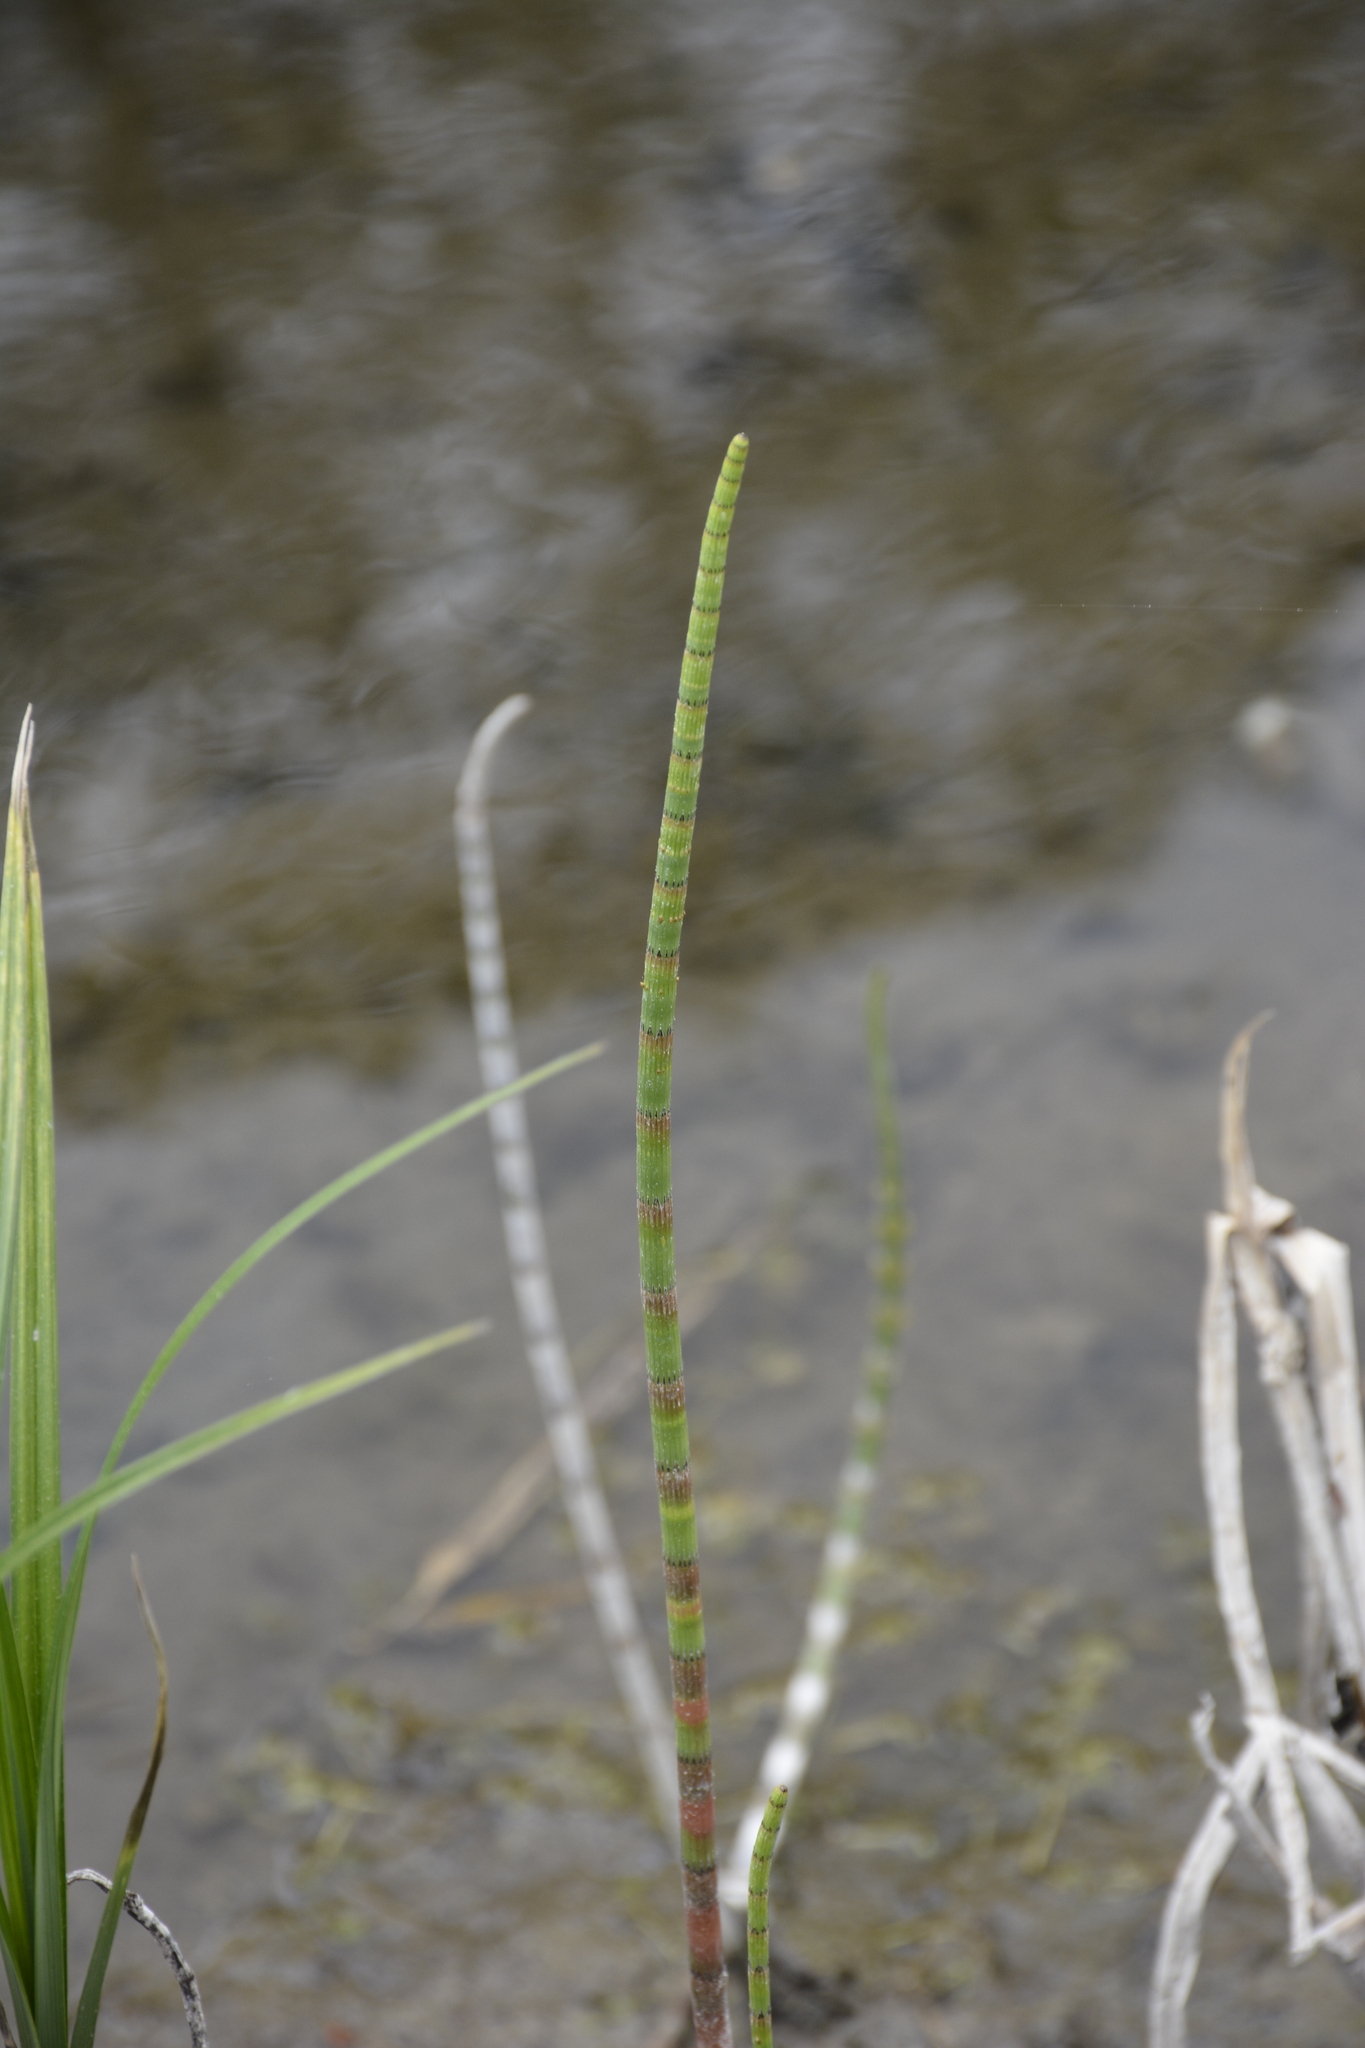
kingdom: Plantae
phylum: Tracheophyta
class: Polypodiopsida
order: Equisetales
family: Equisetaceae
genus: Equisetum
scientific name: Equisetum fluviatile
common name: Water horsetail
